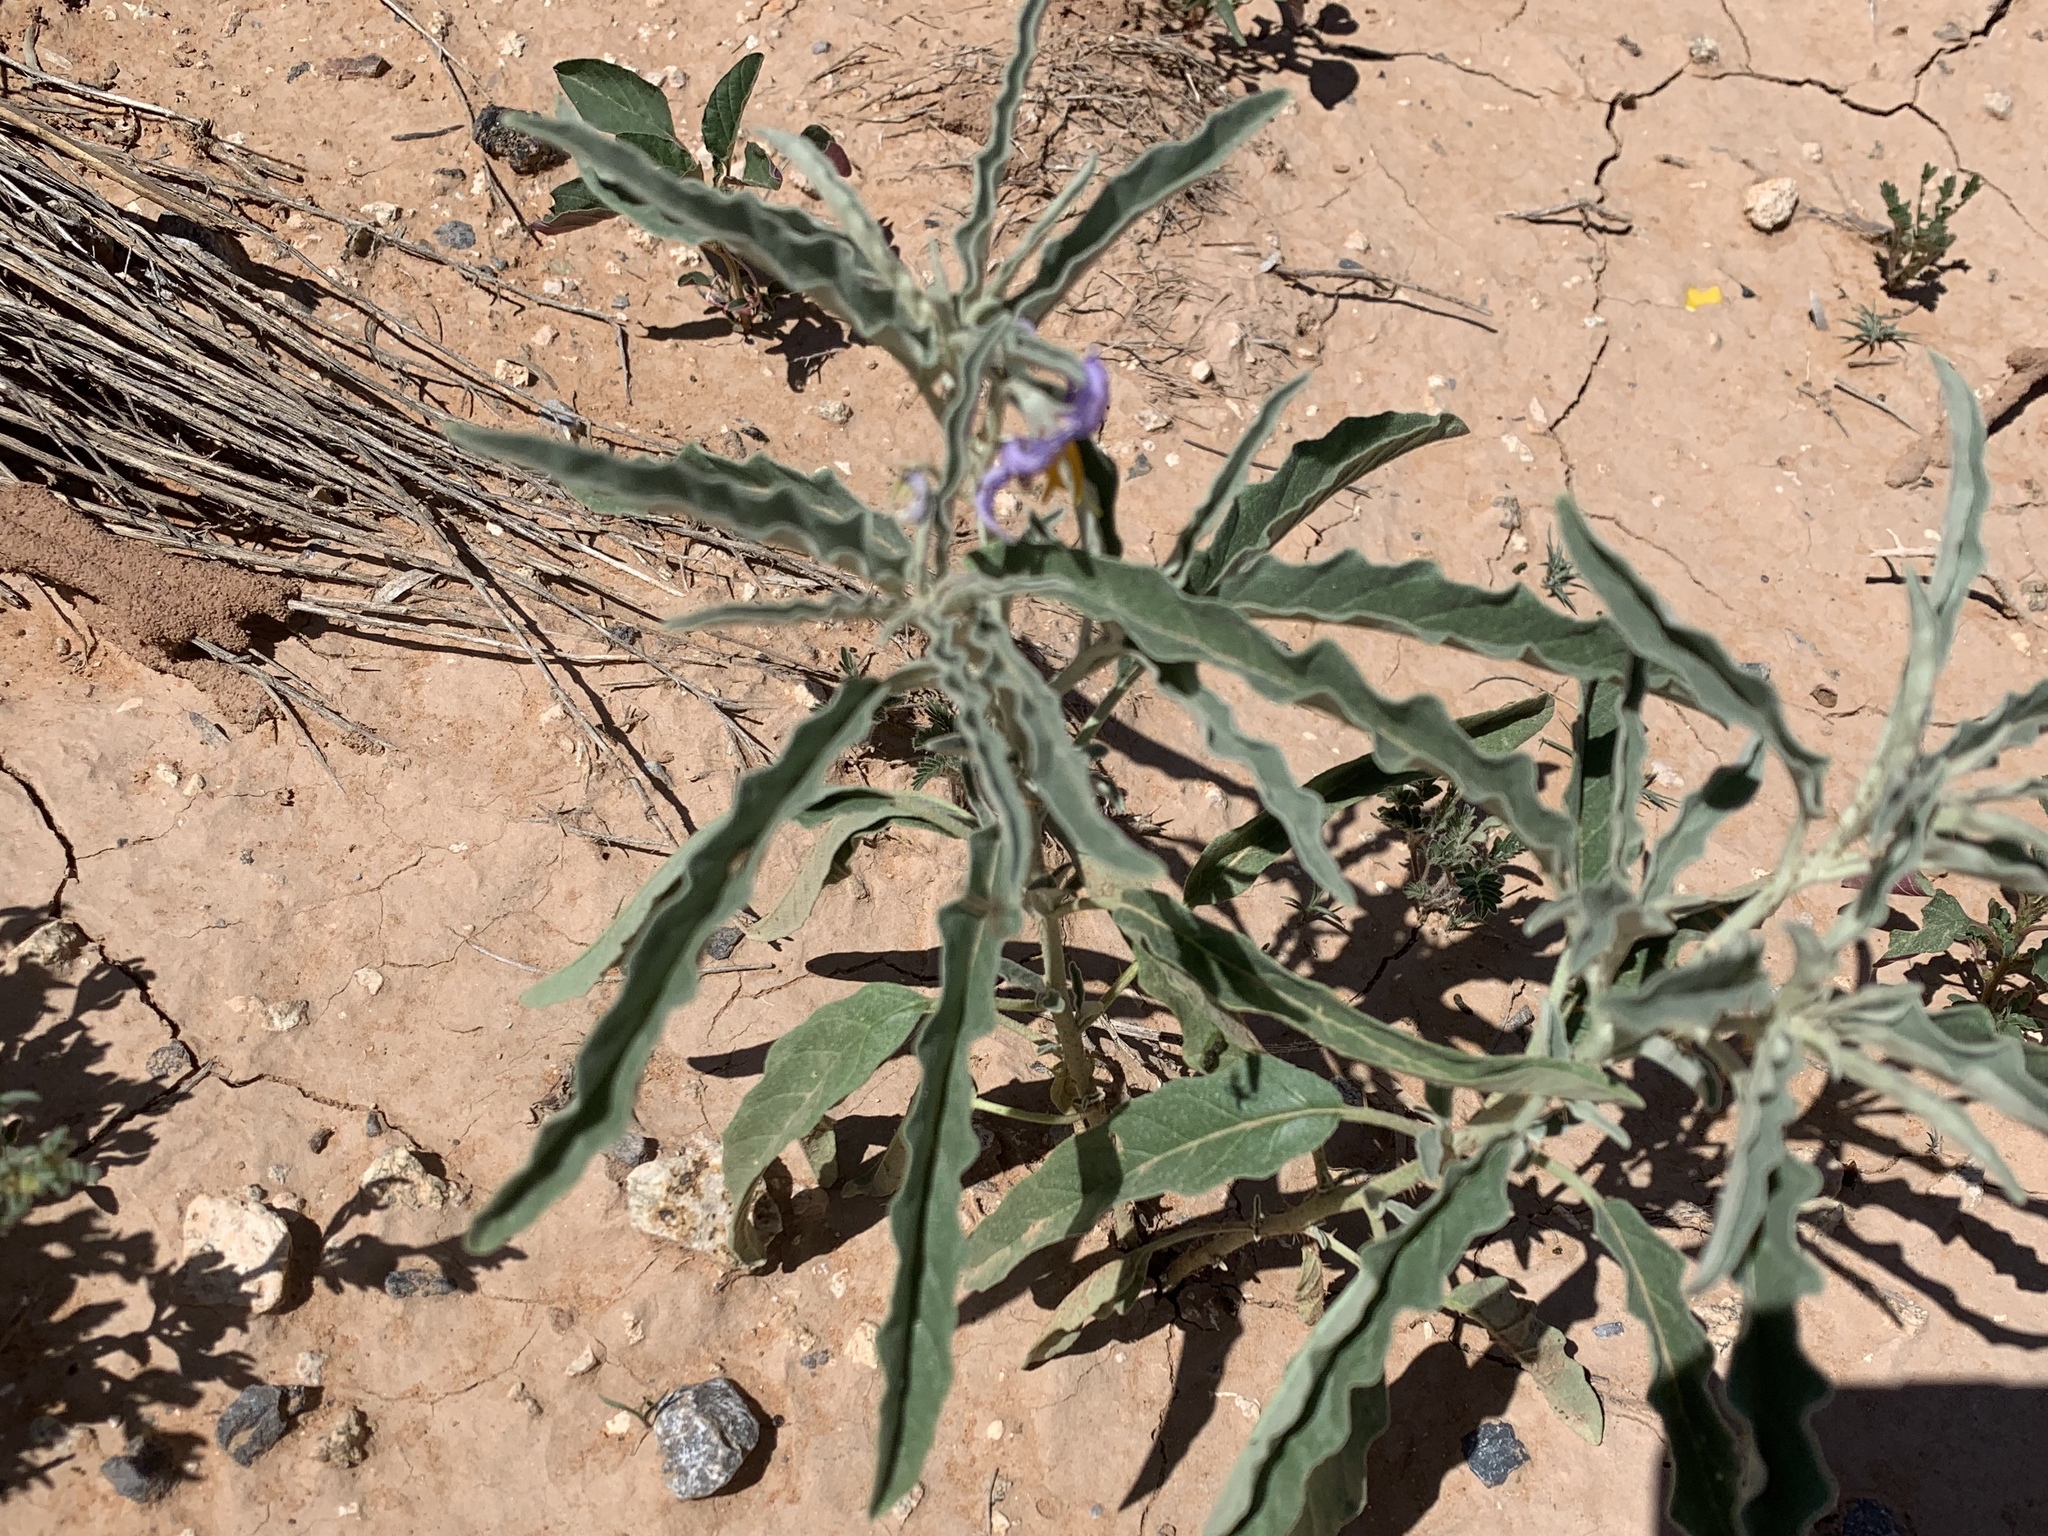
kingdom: Plantae
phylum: Tracheophyta
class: Magnoliopsida
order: Solanales
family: Solanaceae
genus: Solanum
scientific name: Solanum elaeagnifolium
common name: Silverleaf nightshade
